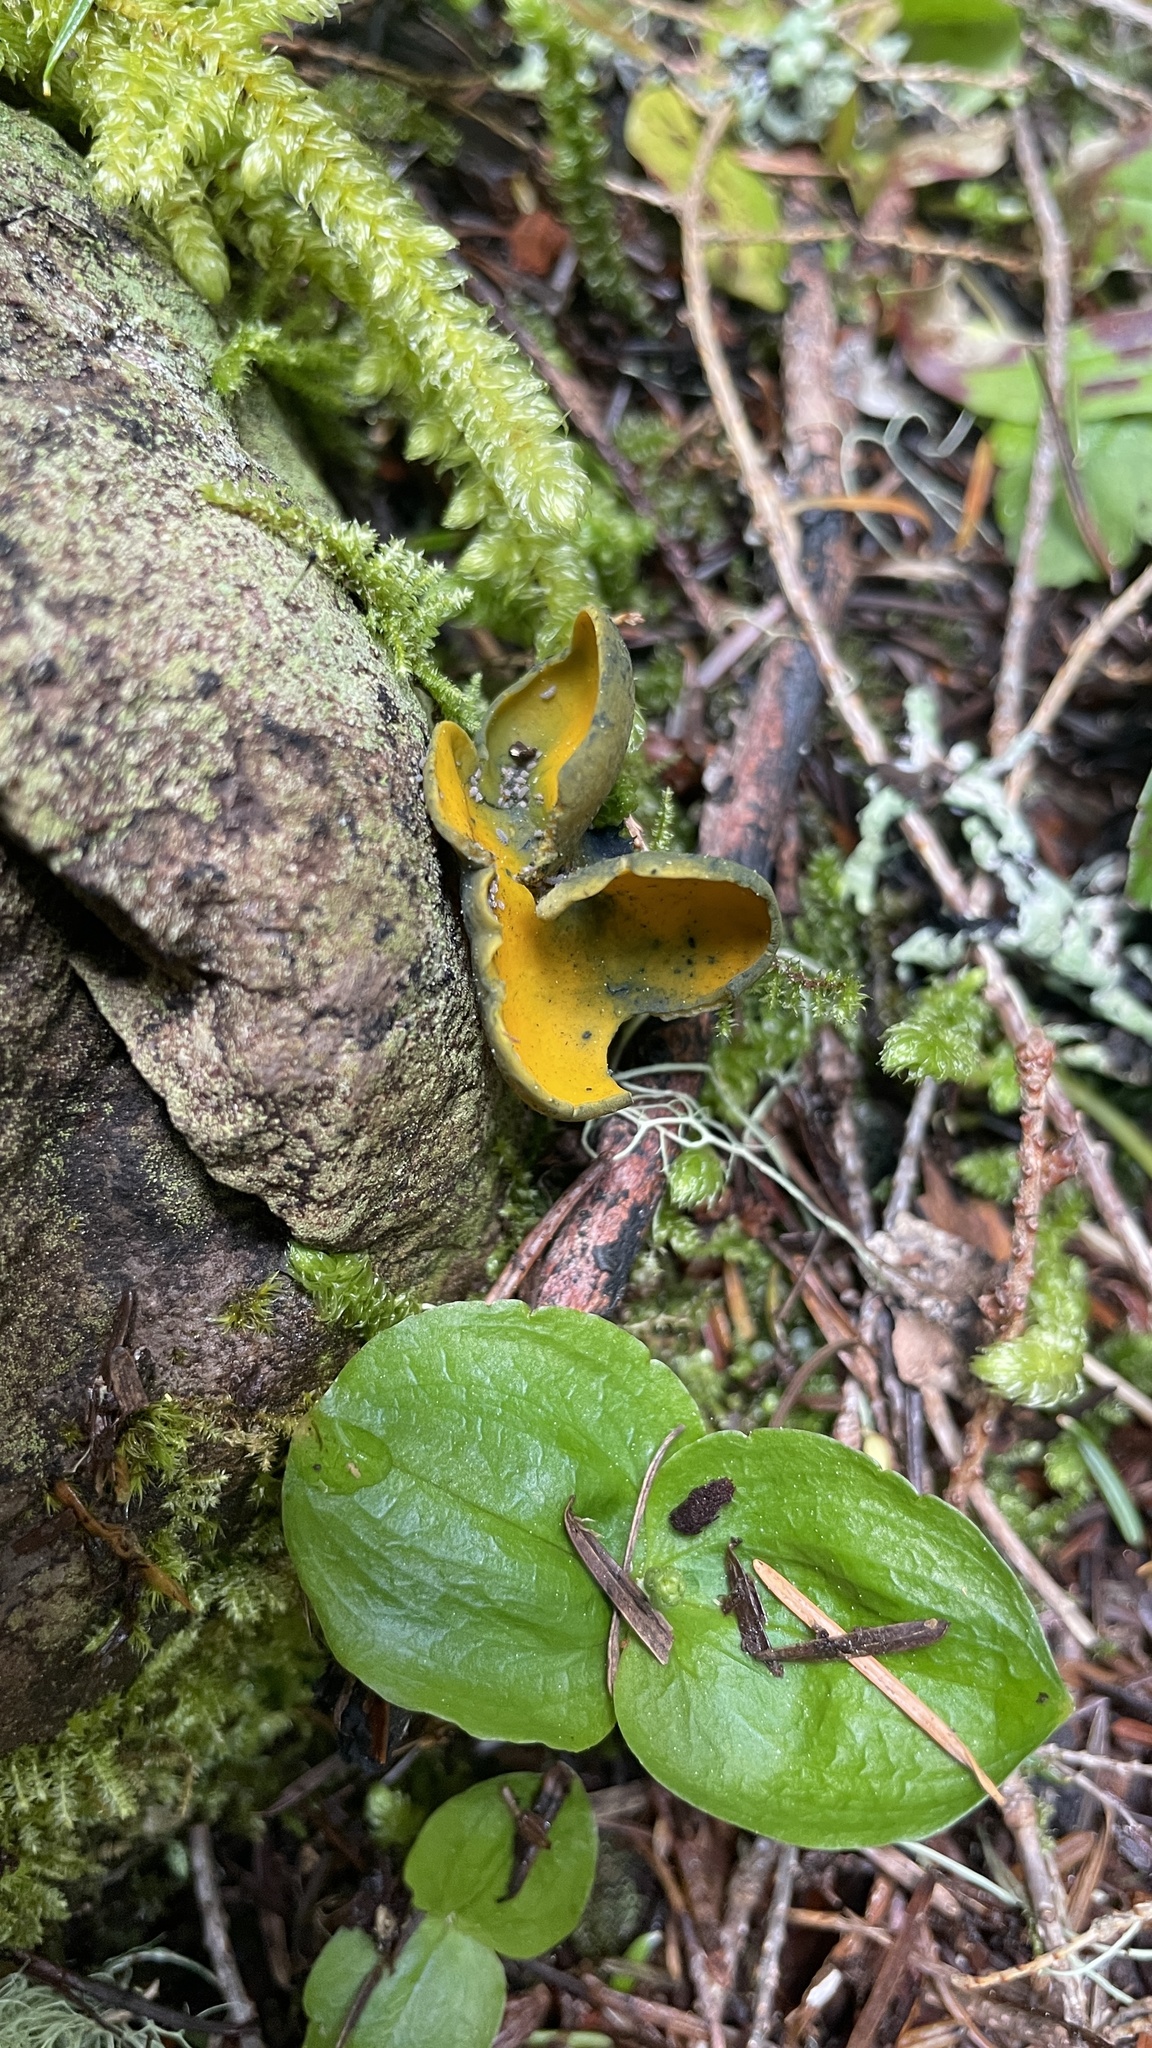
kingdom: Fungi
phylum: Ascomycota
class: Pezizomycetes
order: Pezizales
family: Caloscyphaceae
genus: Caloscypha
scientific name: Caloscypha fulgens
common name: Golden cup
